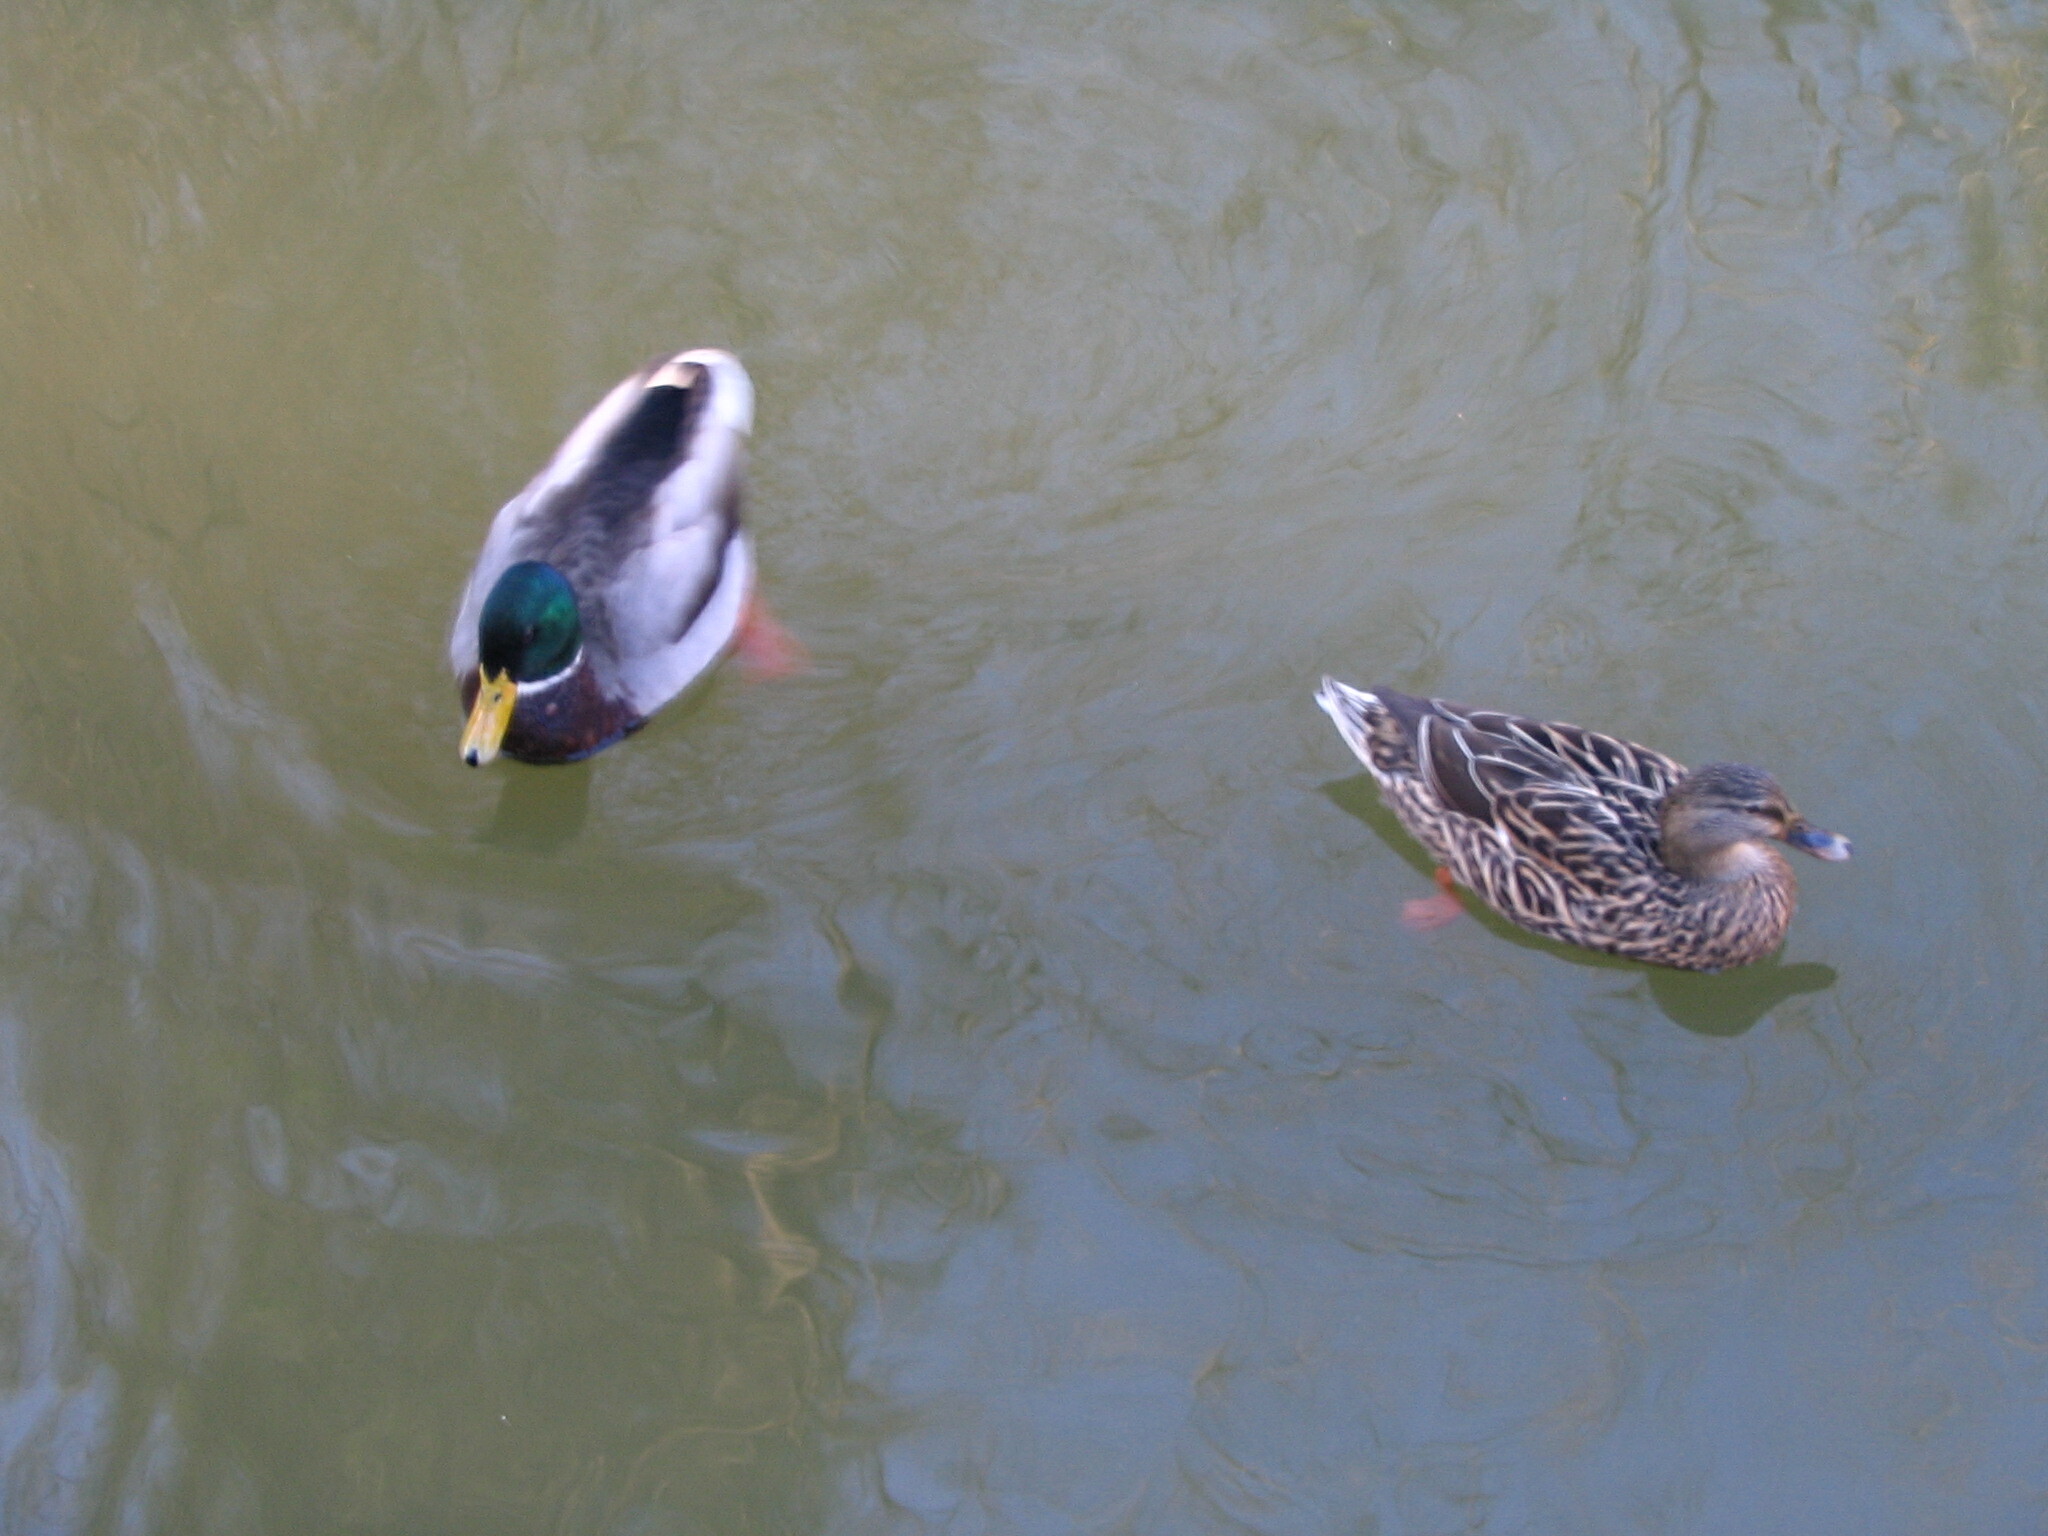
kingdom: Animalia
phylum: Chordata
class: Aves
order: Anseriformes
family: Anatidae
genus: Anas
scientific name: Anas platyrhynchos
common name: Mallard
